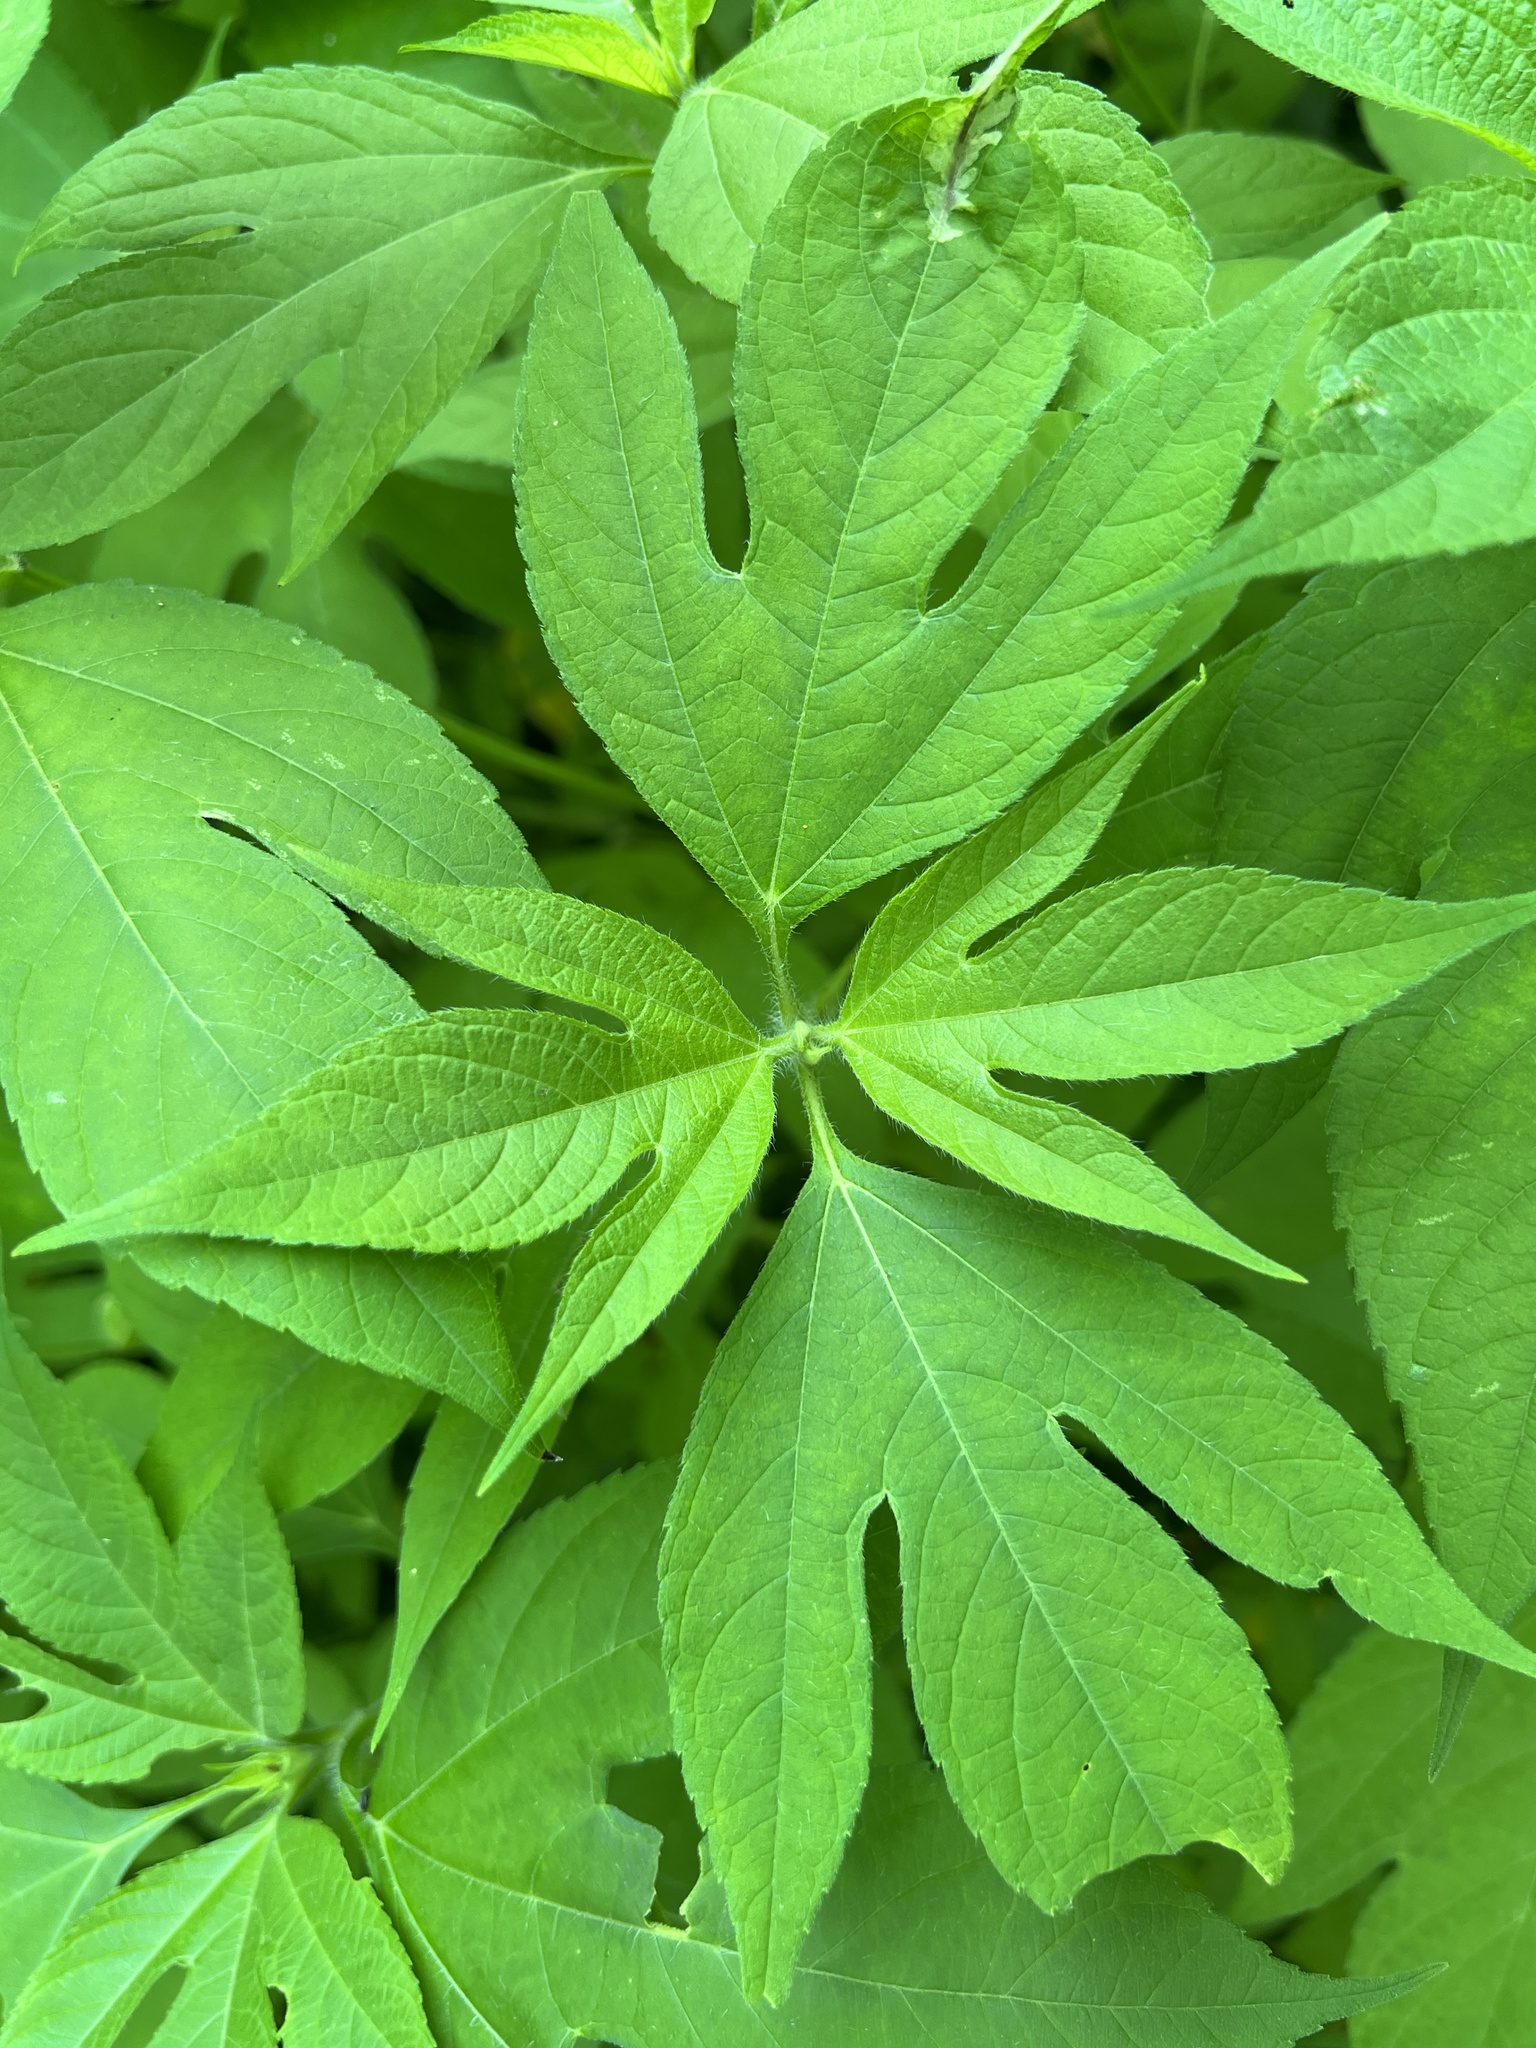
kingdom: Animalia
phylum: Arthropoda
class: Insecta
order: Diptera
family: Agromyzidae
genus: Calycomyza
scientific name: Calycomyza platyptera
